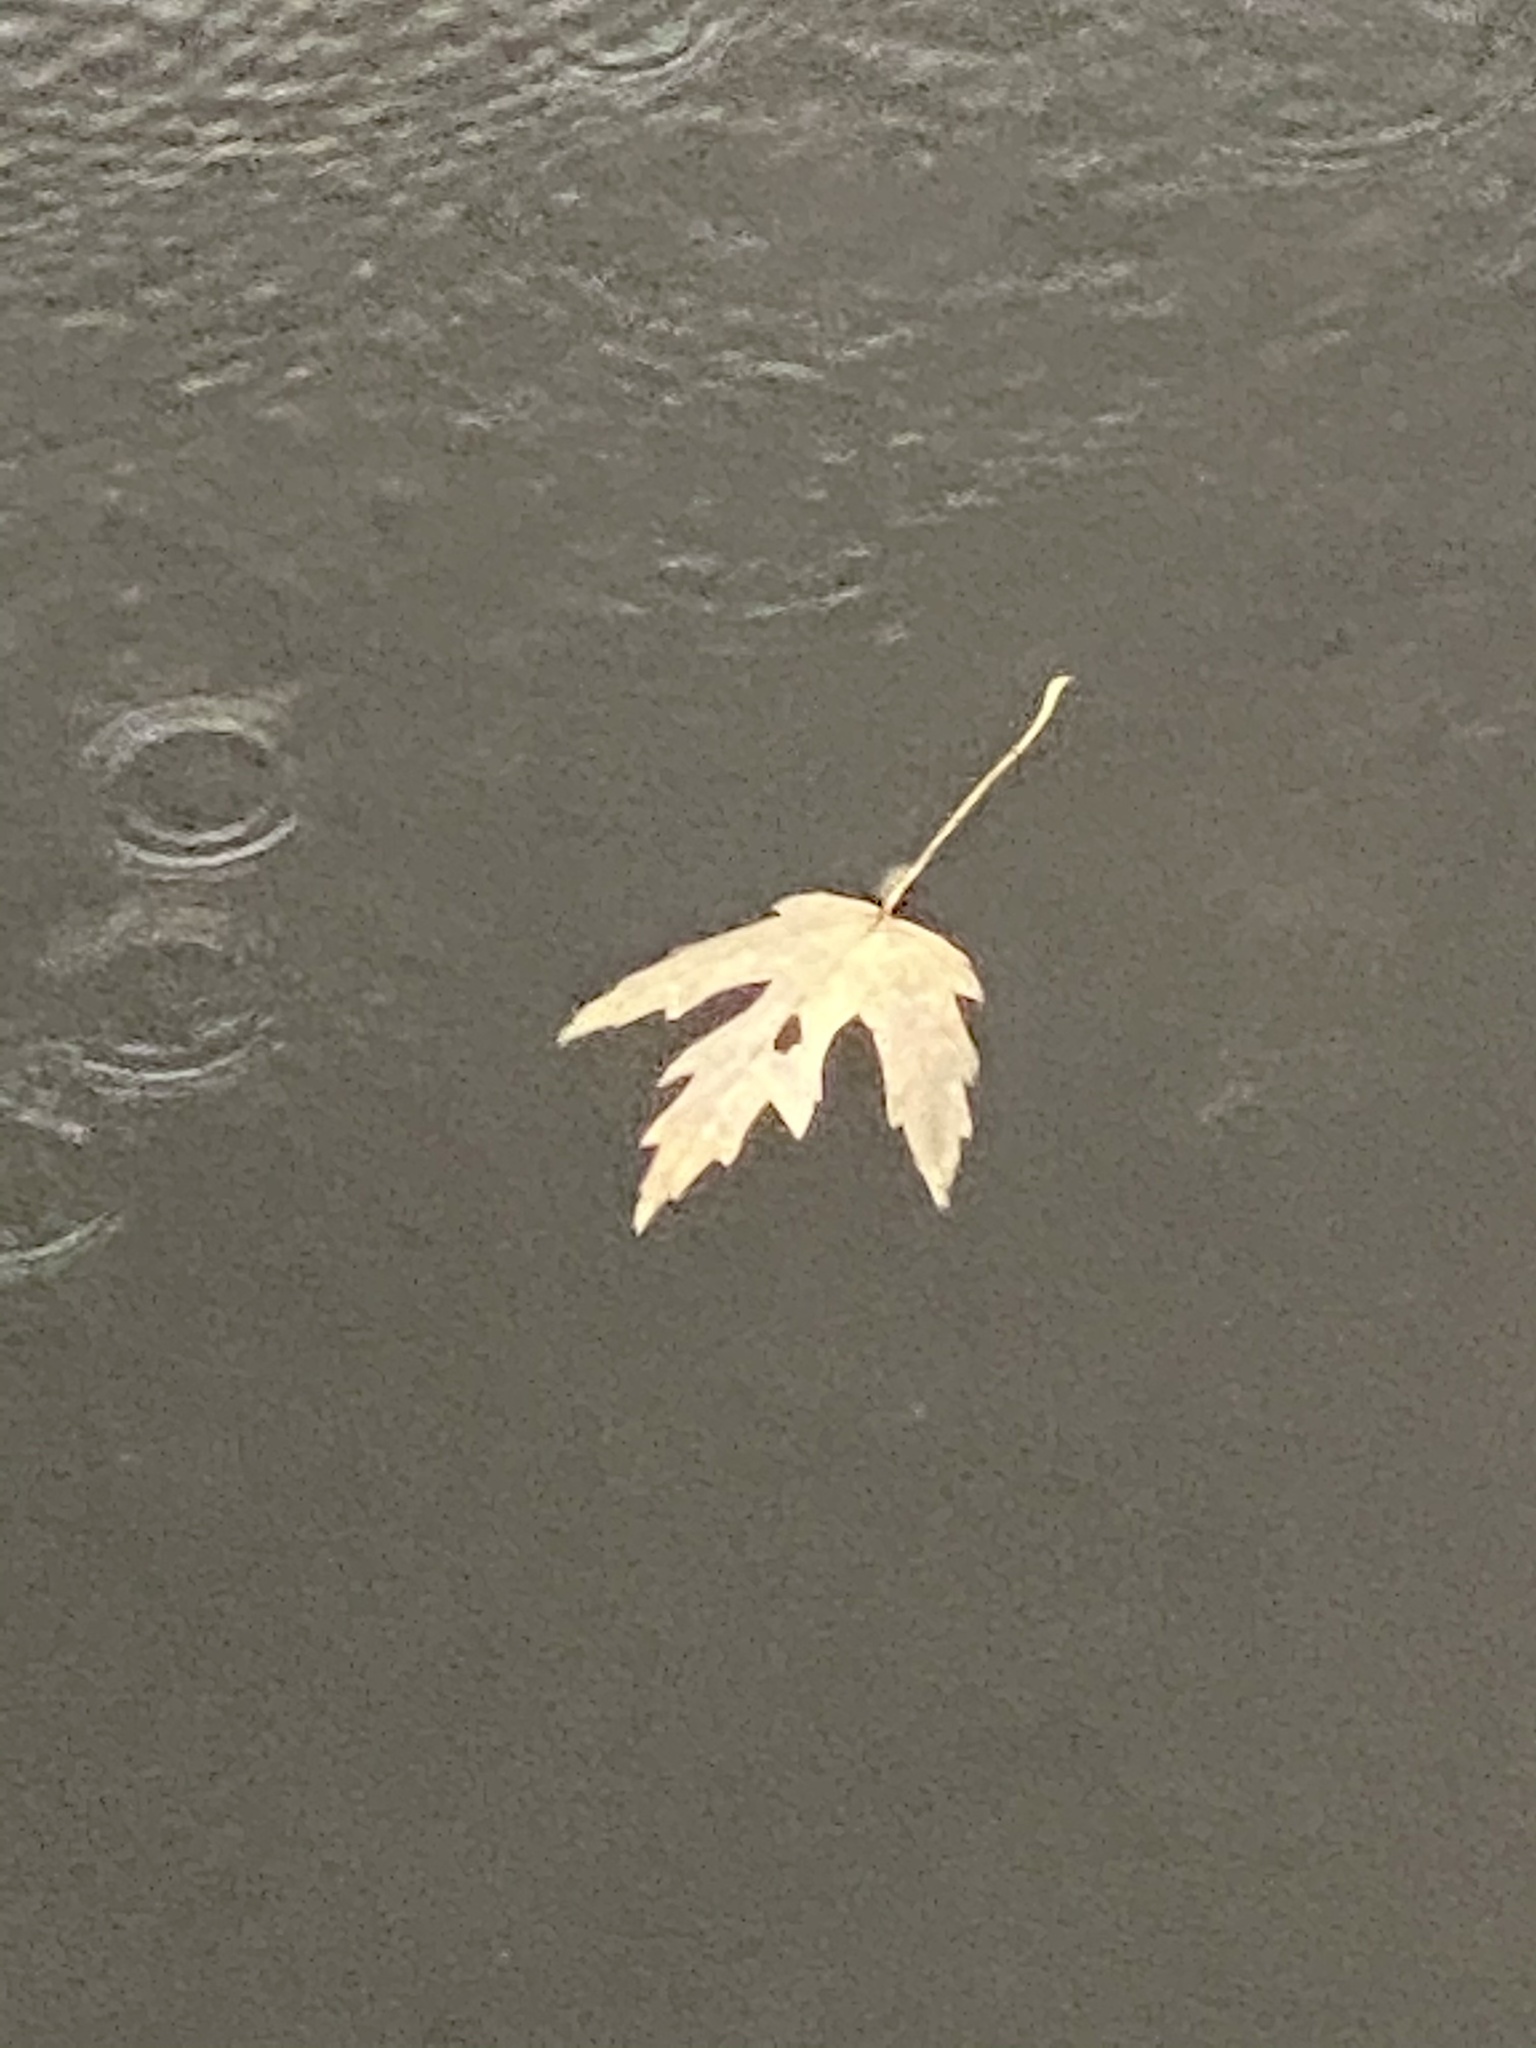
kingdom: Plantae
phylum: Tracheophyta
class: Magnoliopsida
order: Sapindales
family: Sapindaceae
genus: Acer
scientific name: Acer saccharinum
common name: Silver maple
